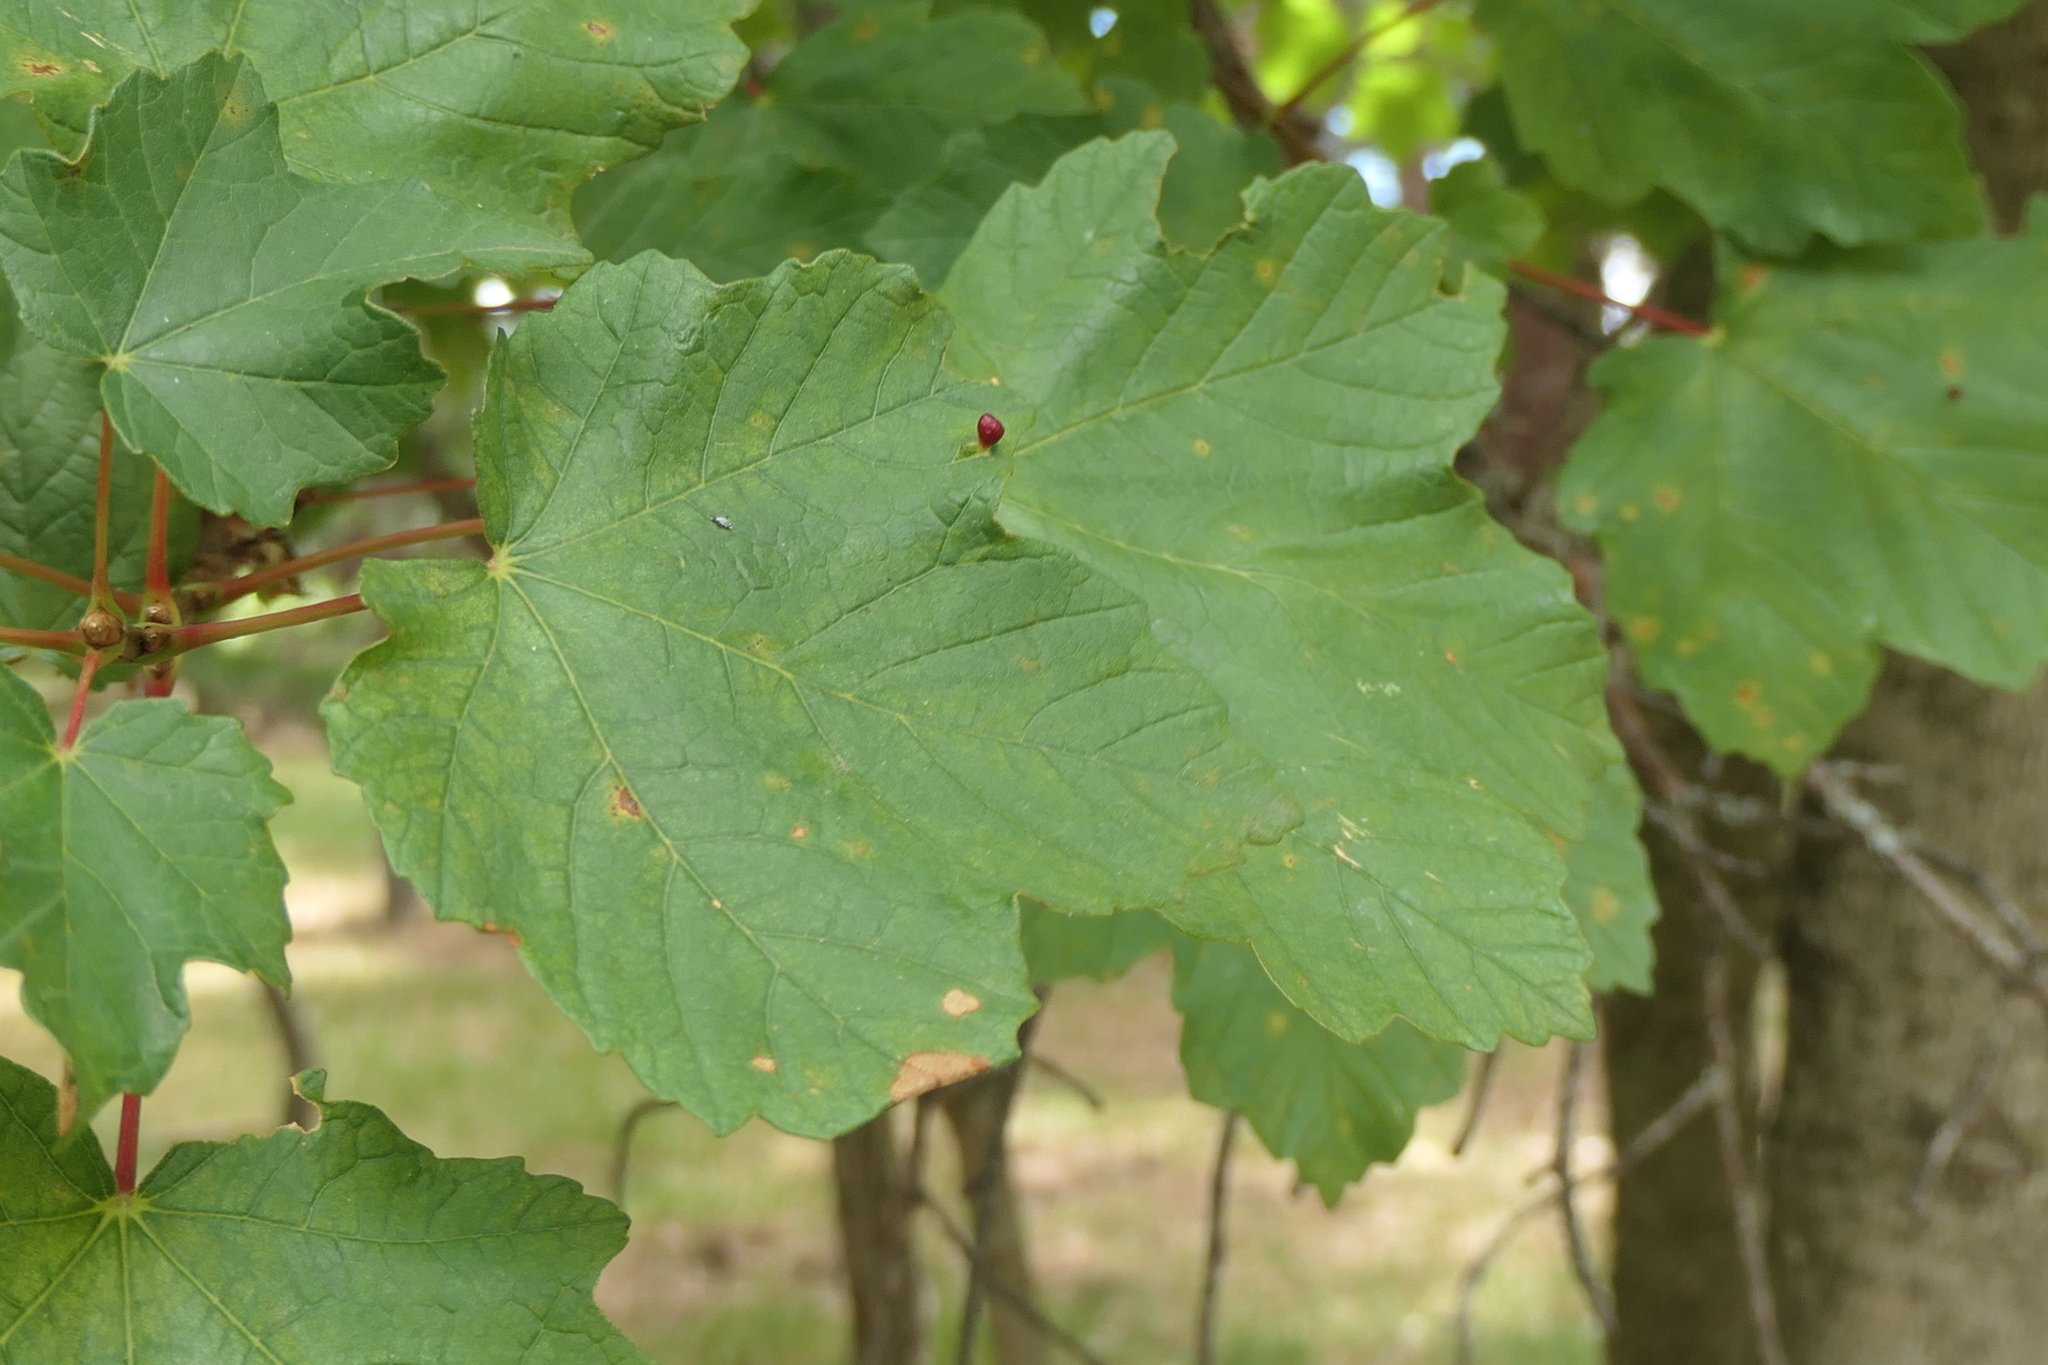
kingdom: Plantae
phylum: Tracheophyta
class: Magnoliopsida
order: Sapindales
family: Sapindaceae
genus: Acer
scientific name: Acer opalus
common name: Italian maple
